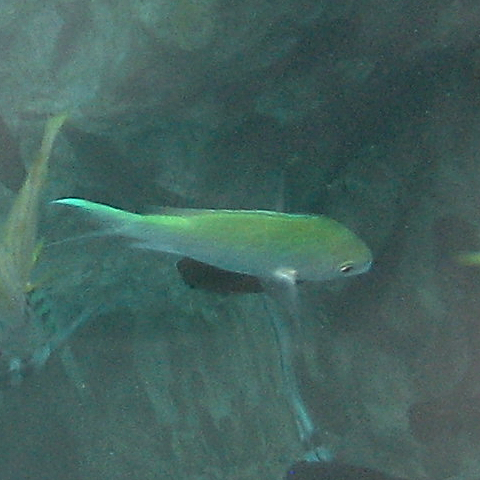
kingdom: Animalia
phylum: Chordata
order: Perciformes
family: Pomacentridae
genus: Chromis
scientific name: Chromis viridis
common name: Blue-green chromis
